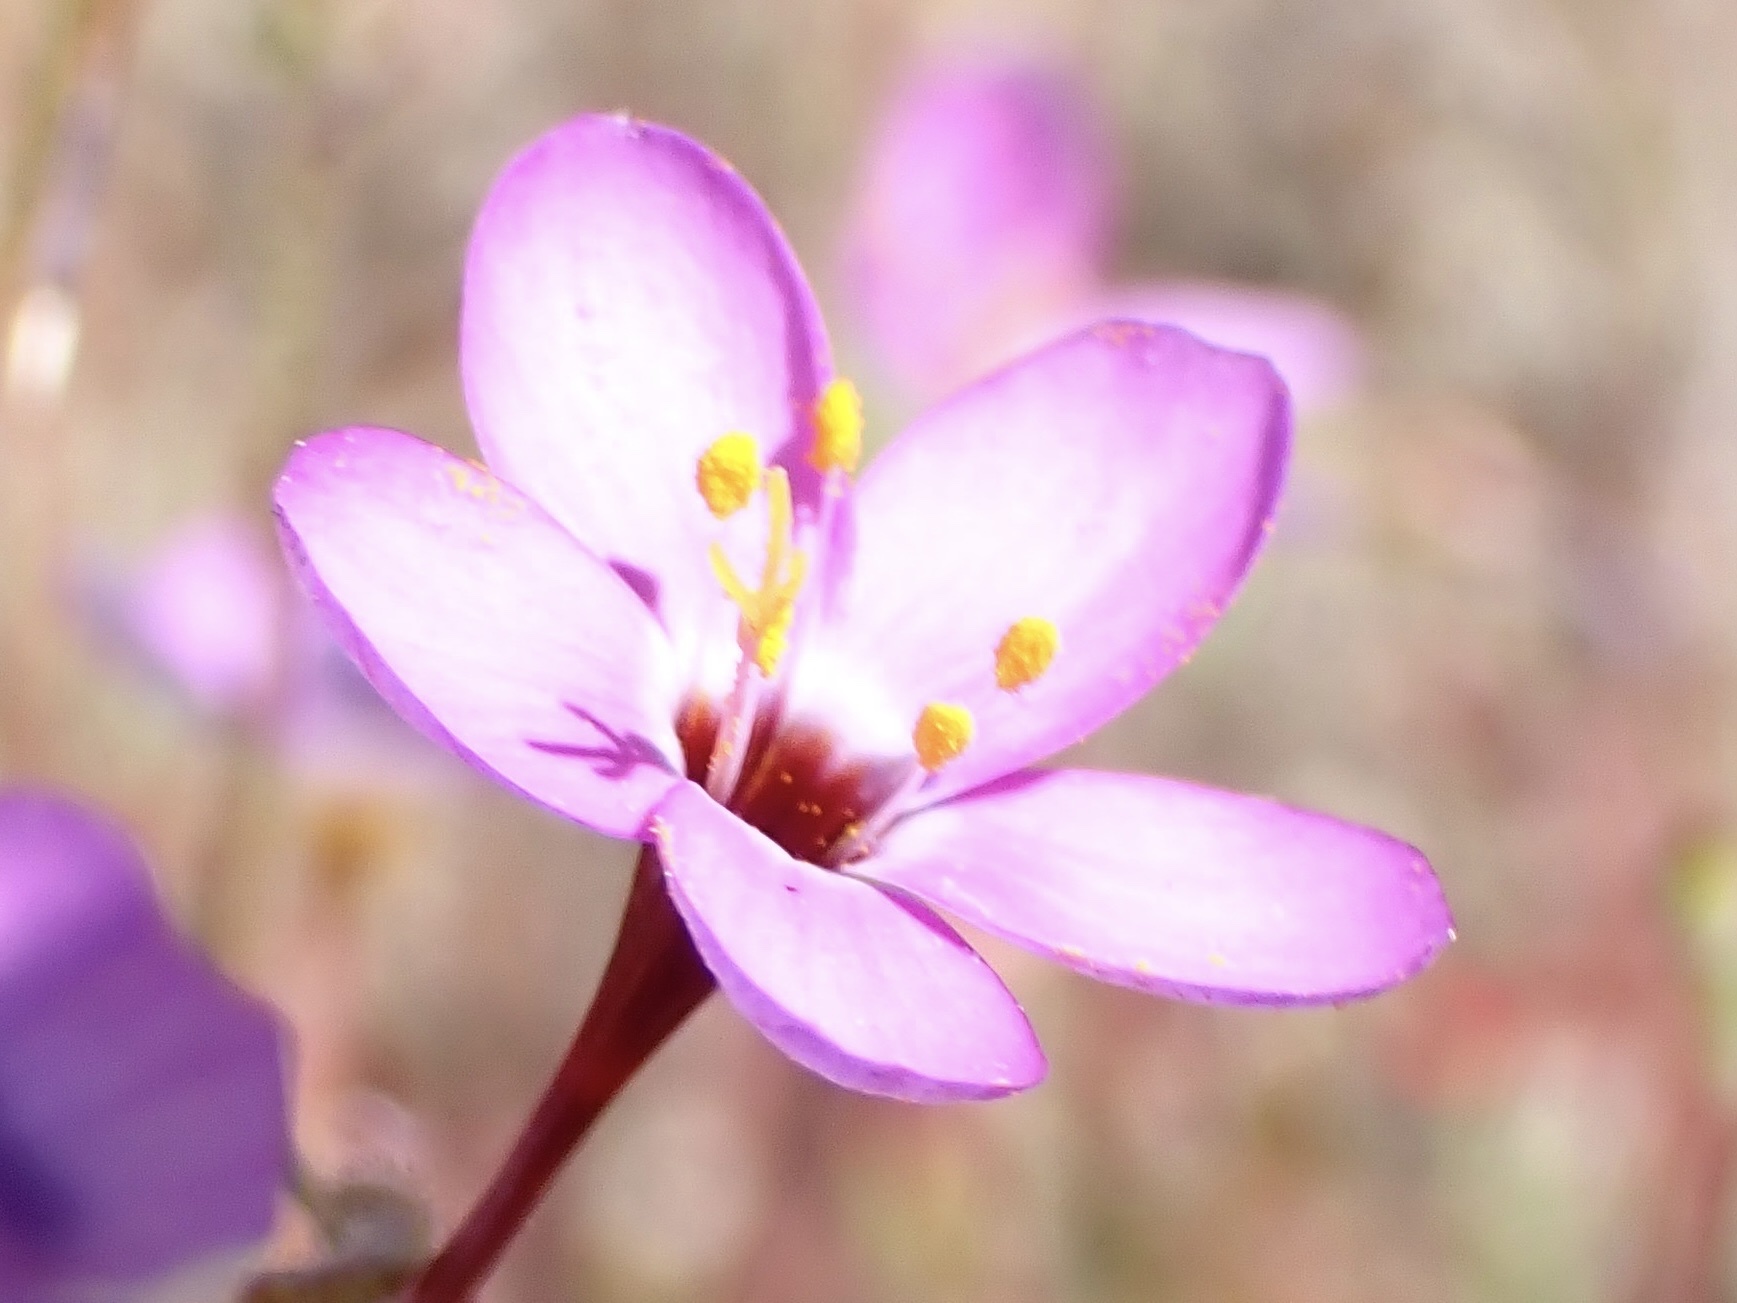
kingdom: Plantae
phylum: Tracheophyta
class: Magnoliopsida
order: Ericales
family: Polemoniaceae
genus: Leptosiphon
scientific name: Leptosiphon ambiguus
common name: Serpentine linanthus
